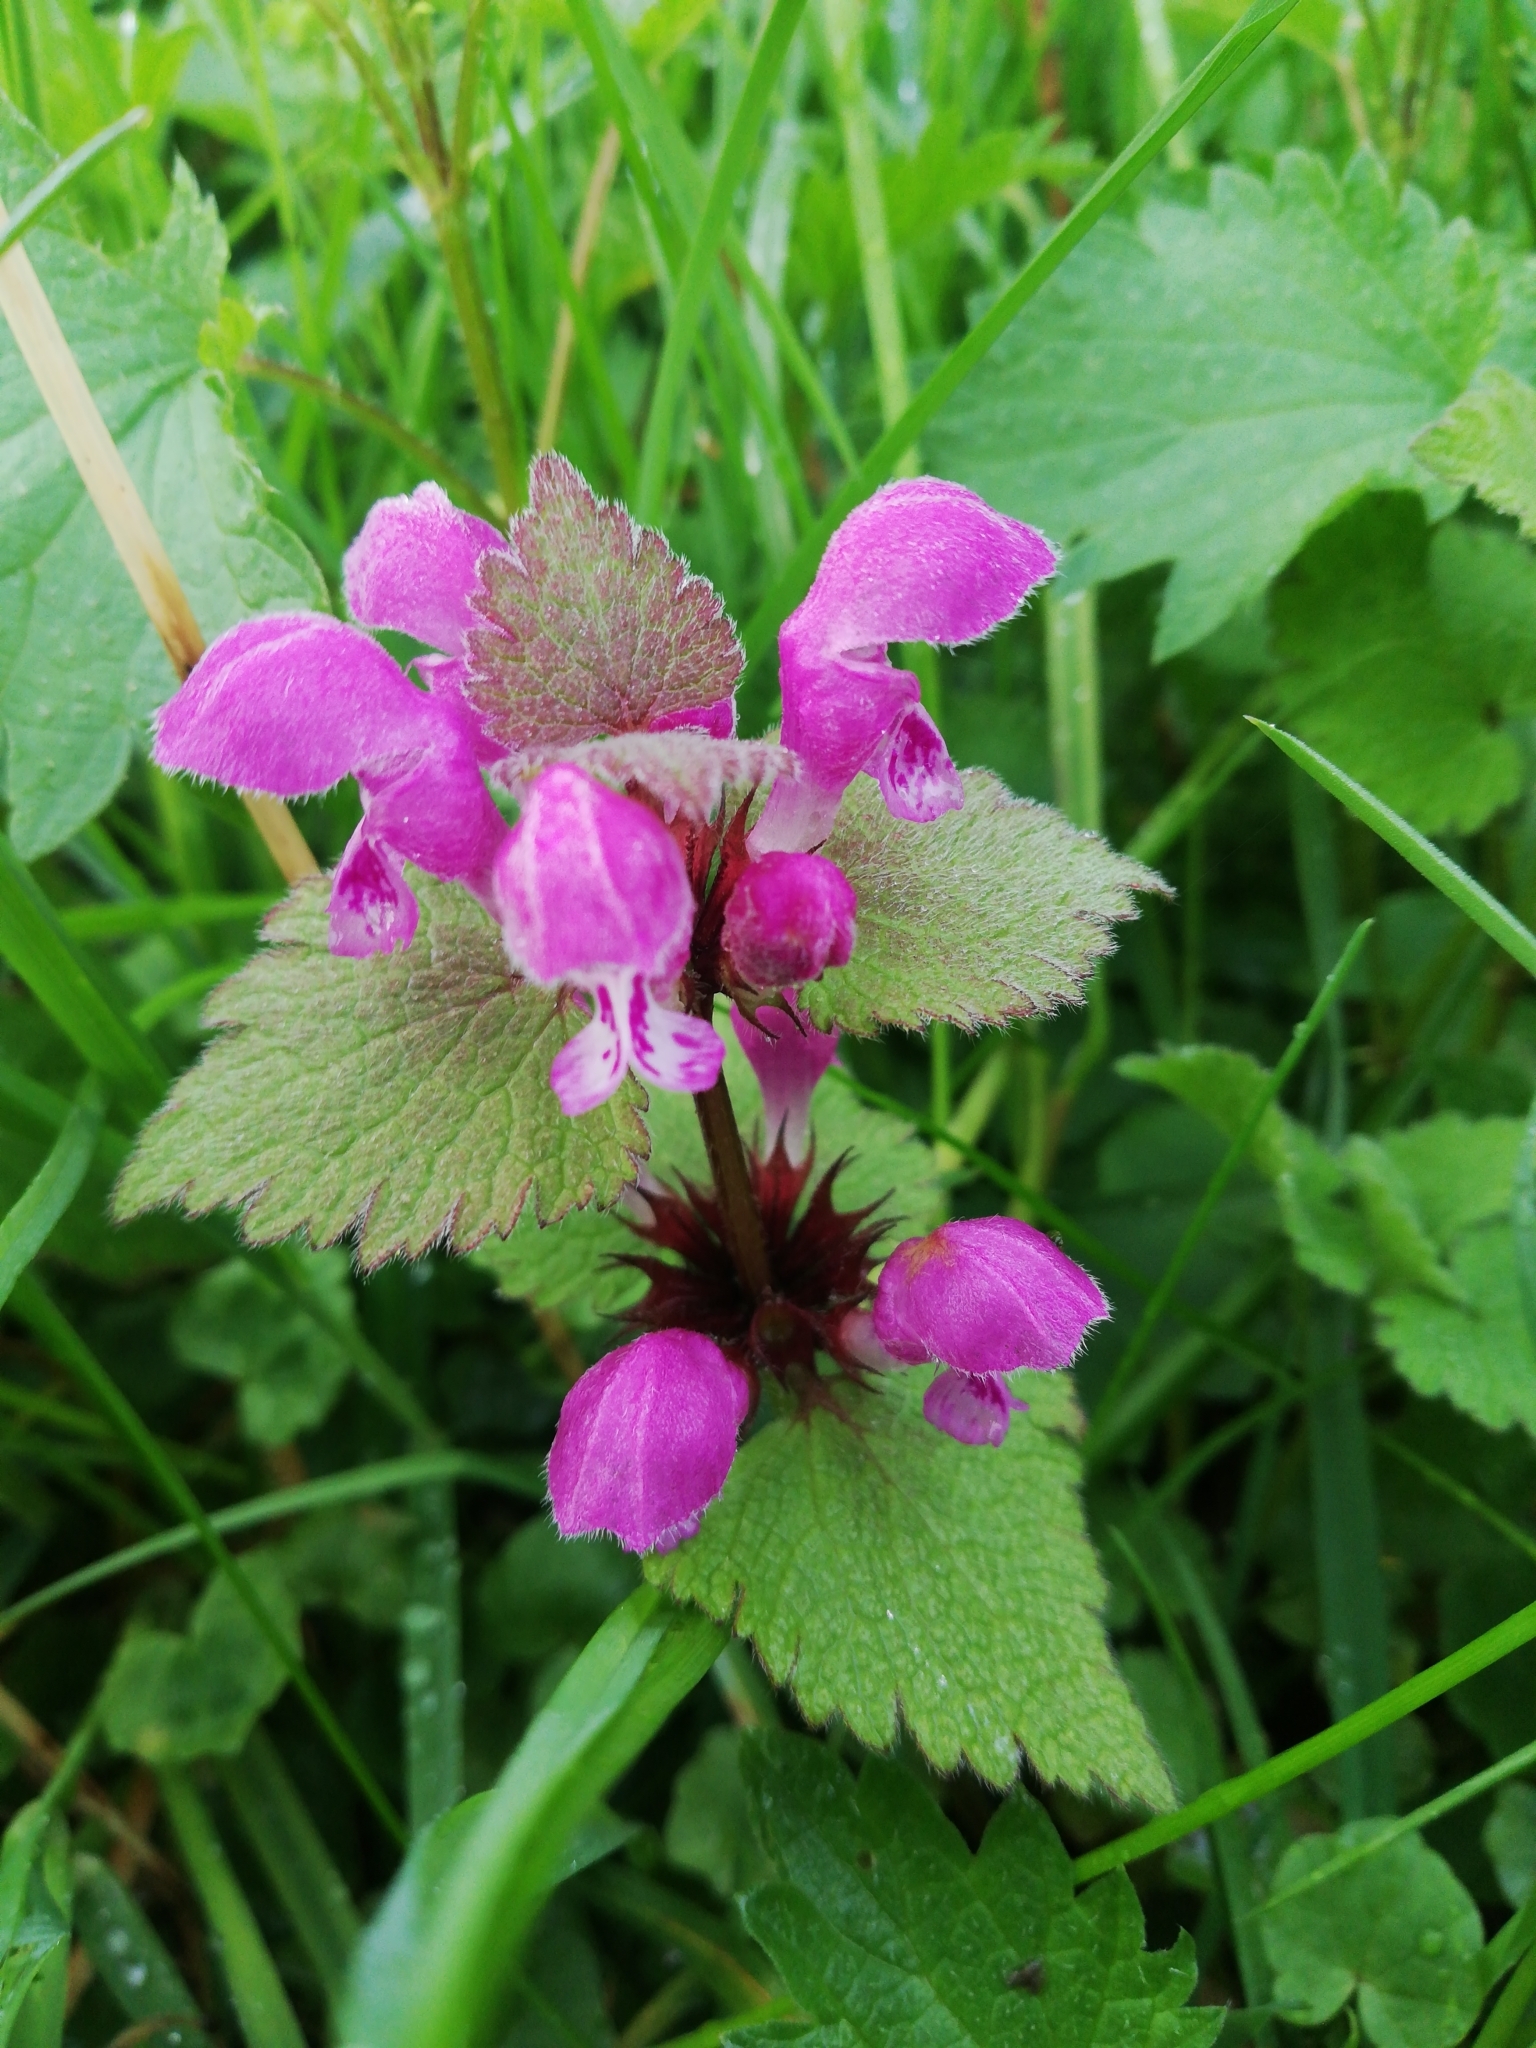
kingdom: Plantae
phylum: Tracheophyta
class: Magnoliopsida
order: Lamiales
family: Lamiaceae
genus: Lamium
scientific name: Lamium maculatum
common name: Spotted dead-nettle
